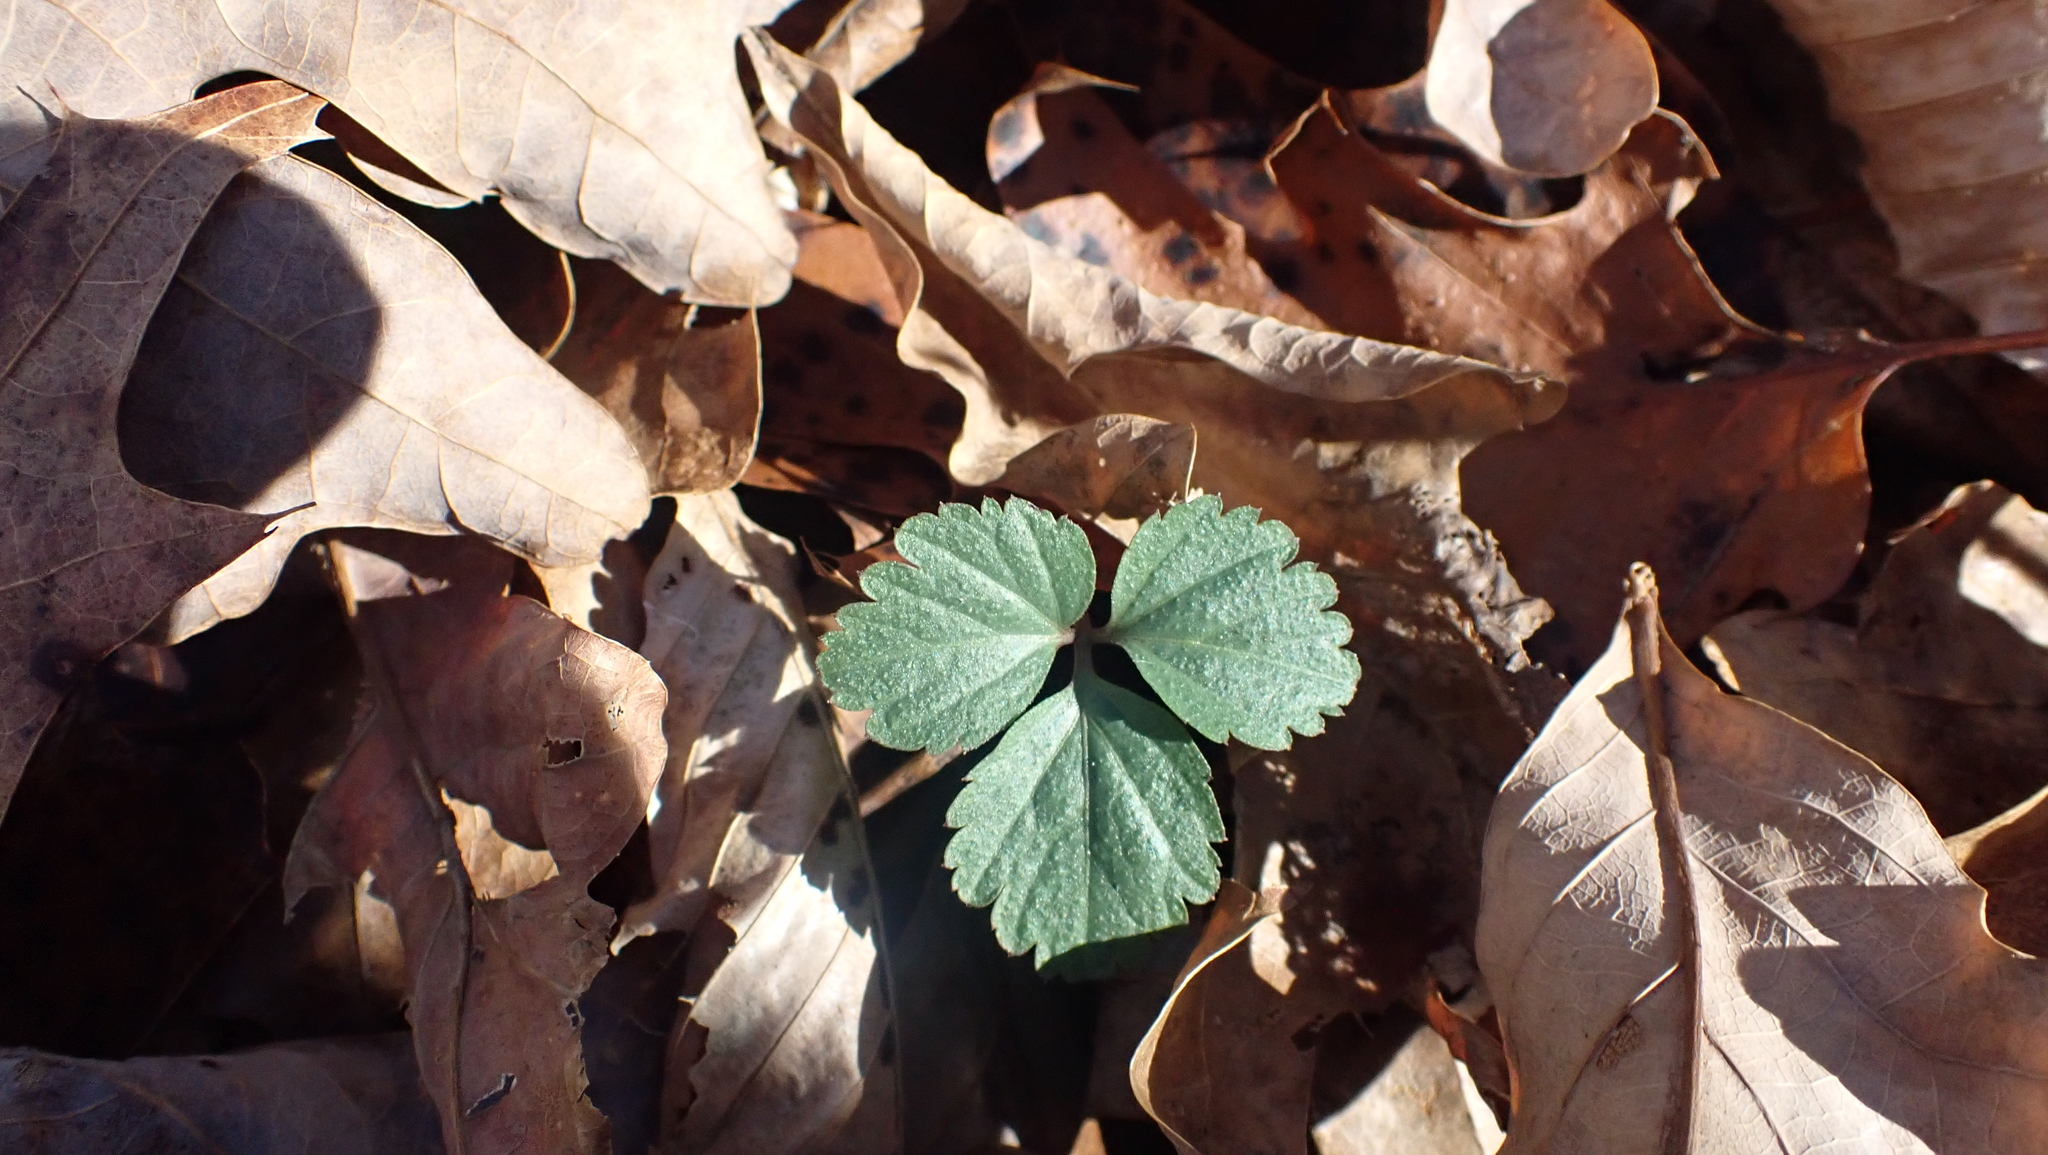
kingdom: Plantae
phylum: Tracheophyta
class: Magnoliopsida
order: Brassicales
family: Brassicaceae
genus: Cardamine
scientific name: Cardamine angustata
